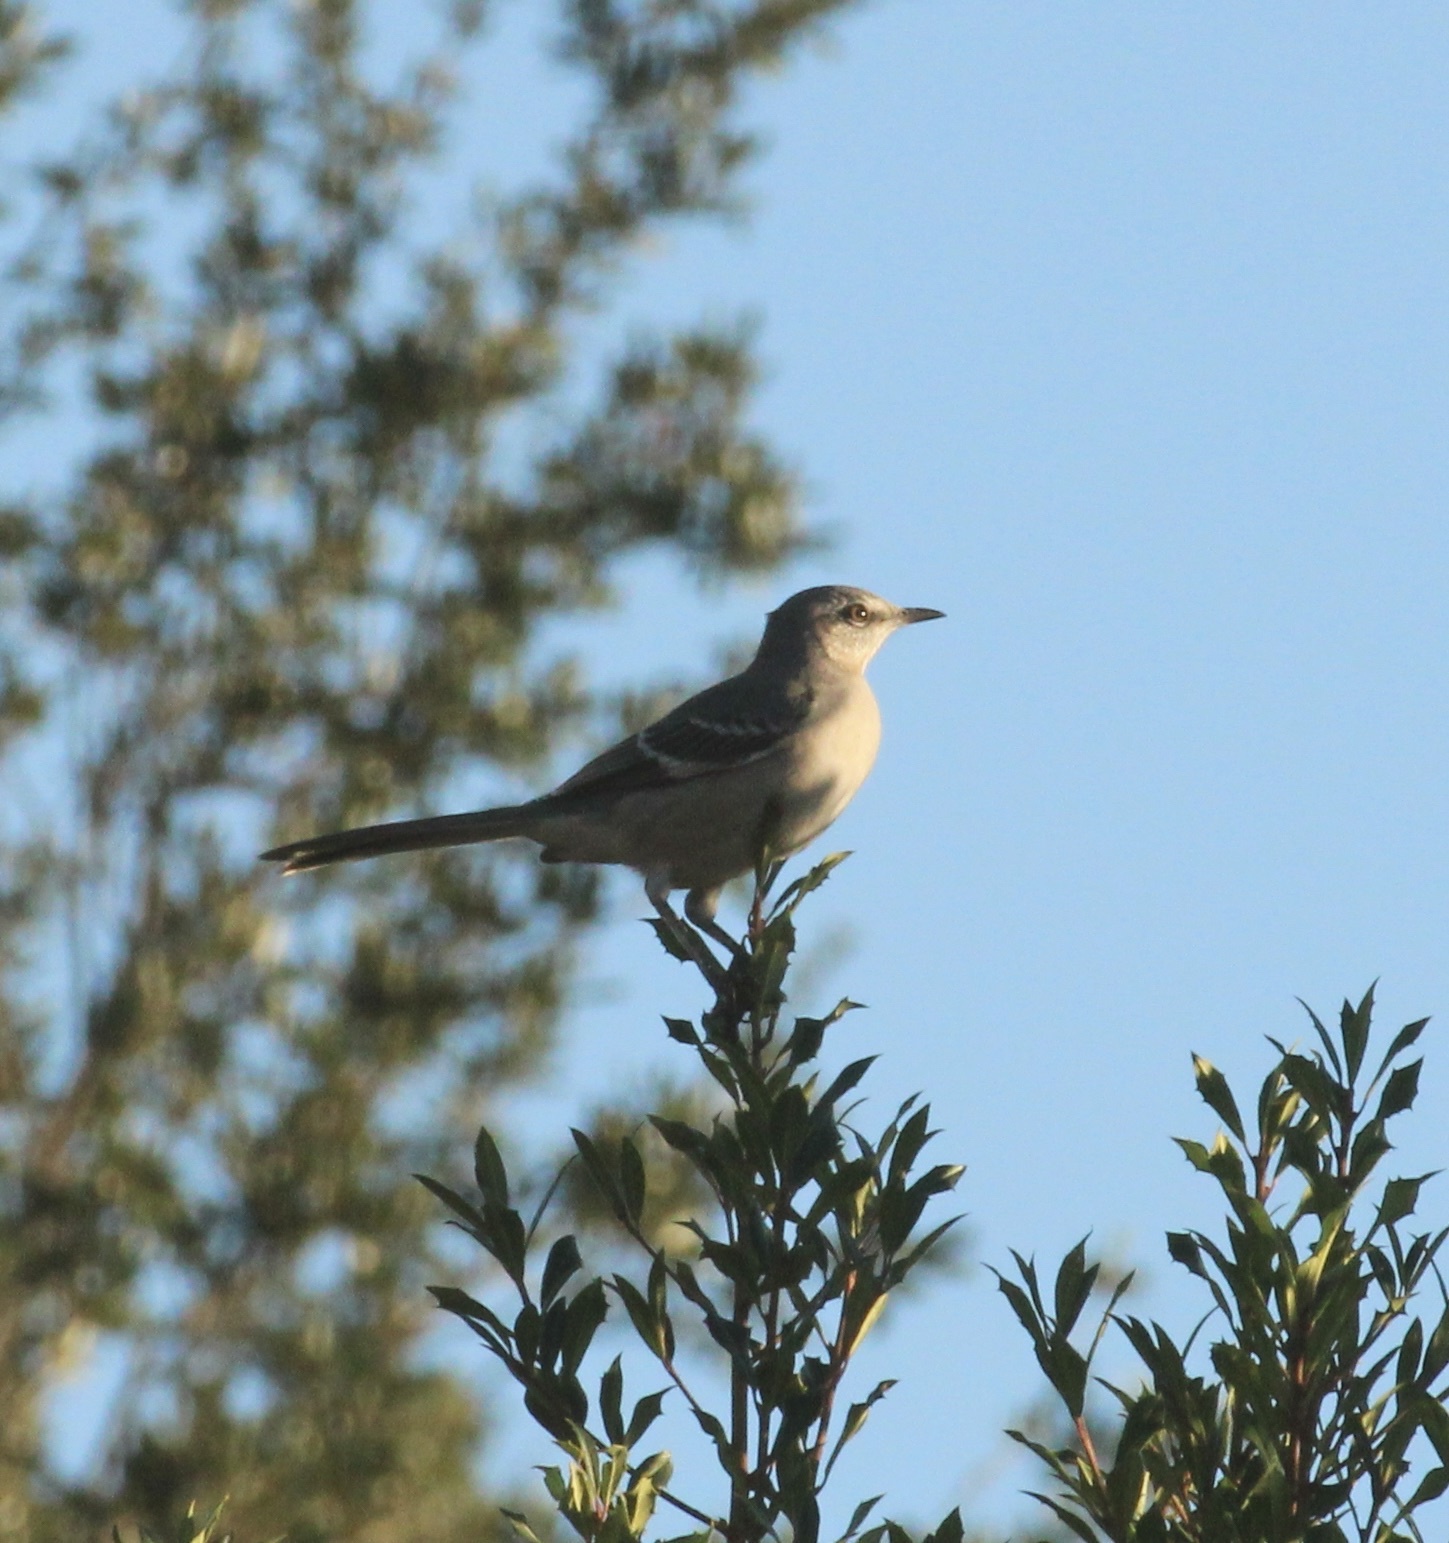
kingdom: Animalia
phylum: Chordata
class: Aves
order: Passeriformes
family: Mimidae
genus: Mimus
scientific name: Mimus polyglottos
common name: Northern mockingbird
